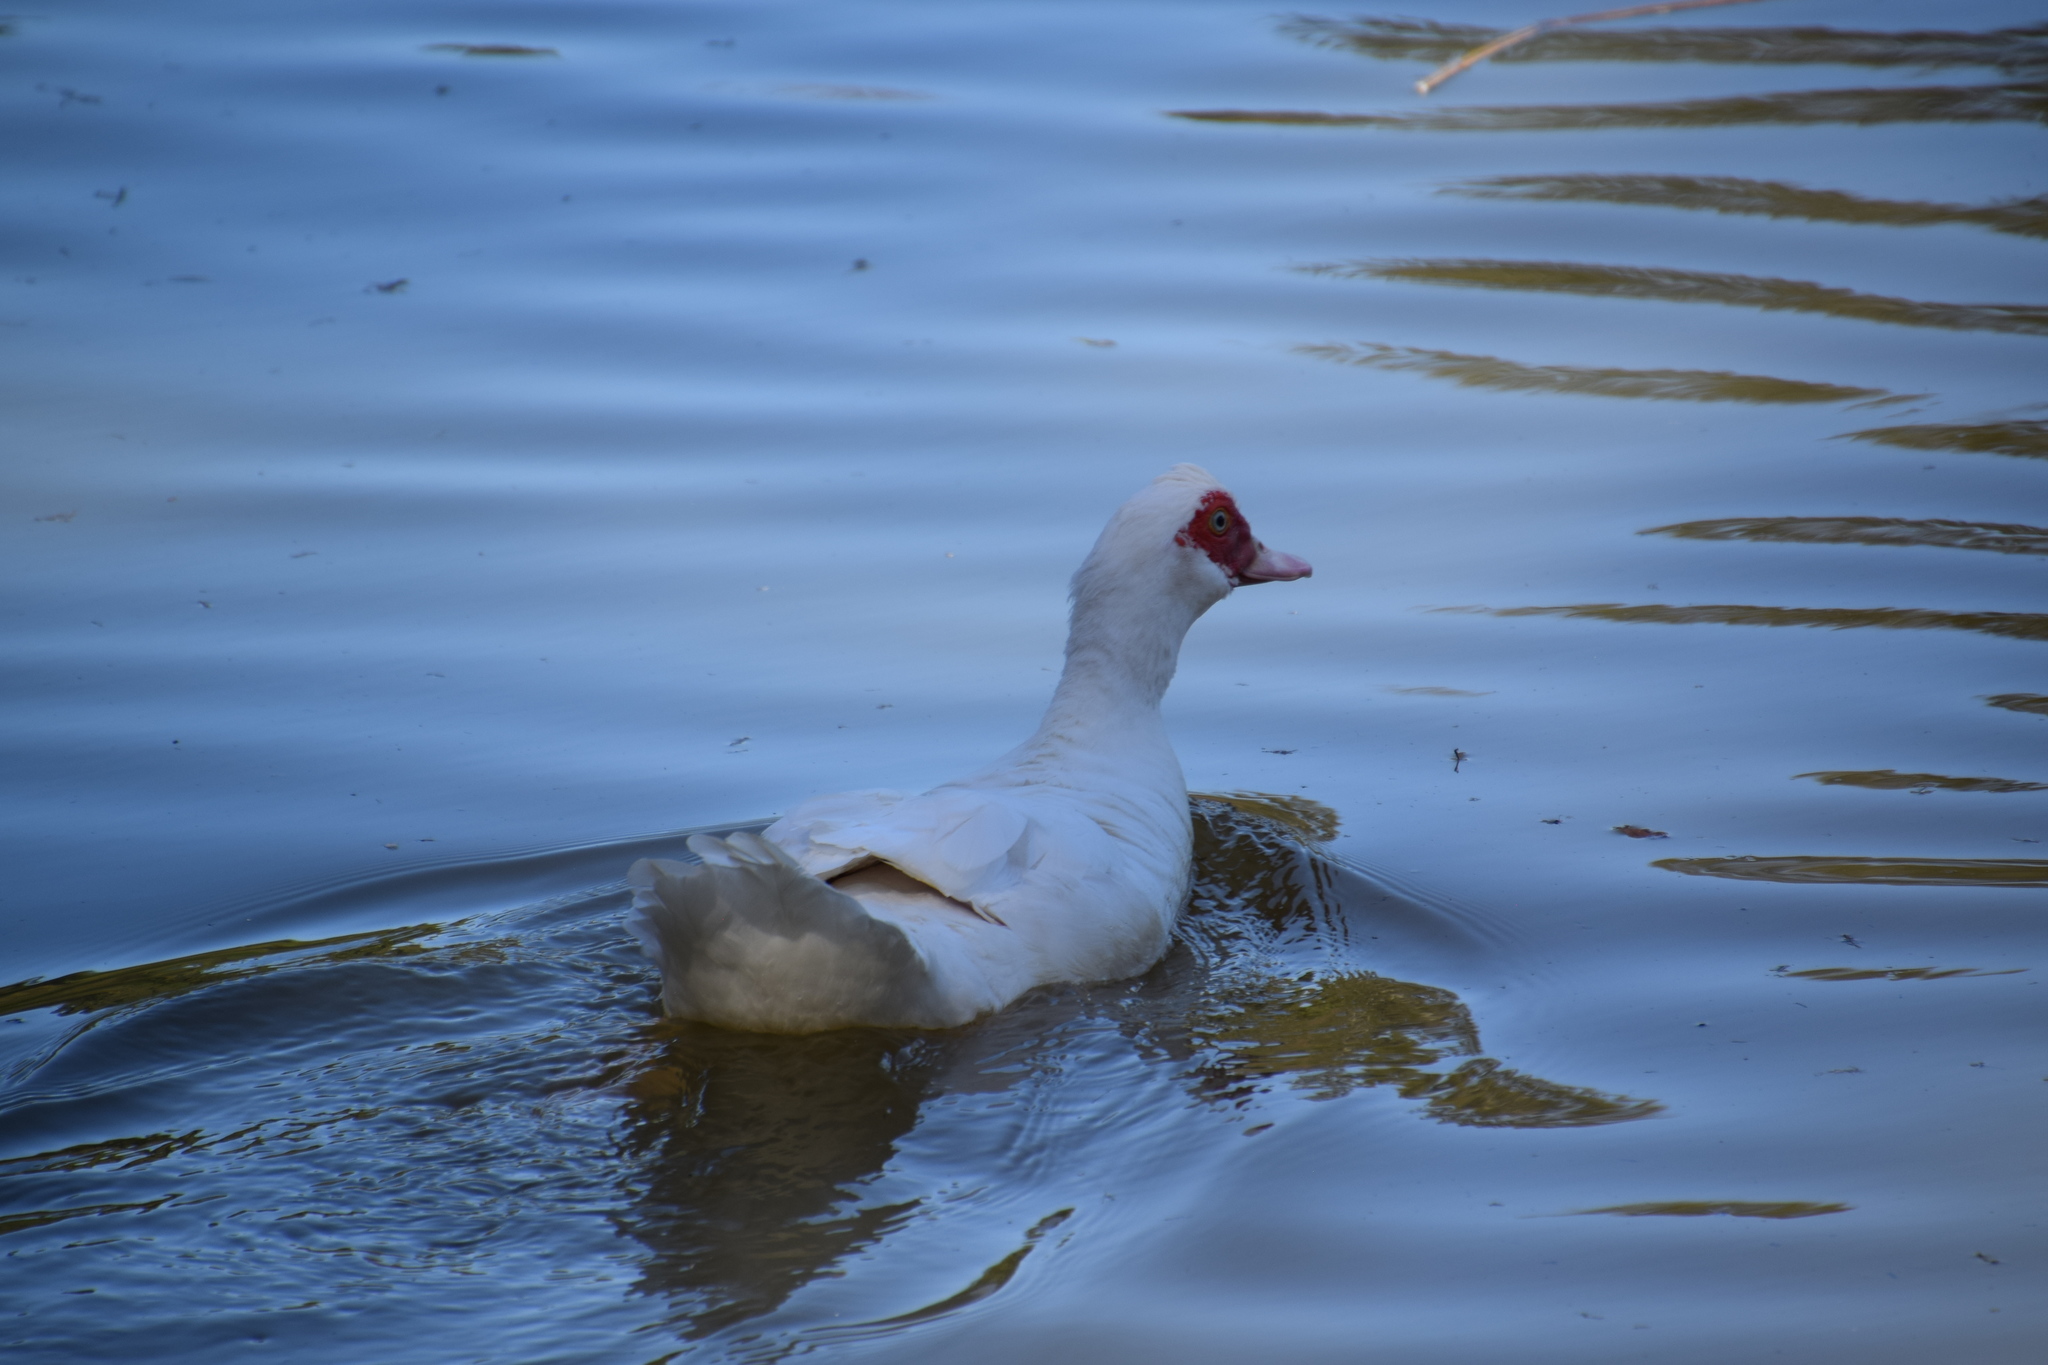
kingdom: Animalia
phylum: Chordata
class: Aves
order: Anseriformes
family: Anatidae
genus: Cairina
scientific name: Cairina moschata
